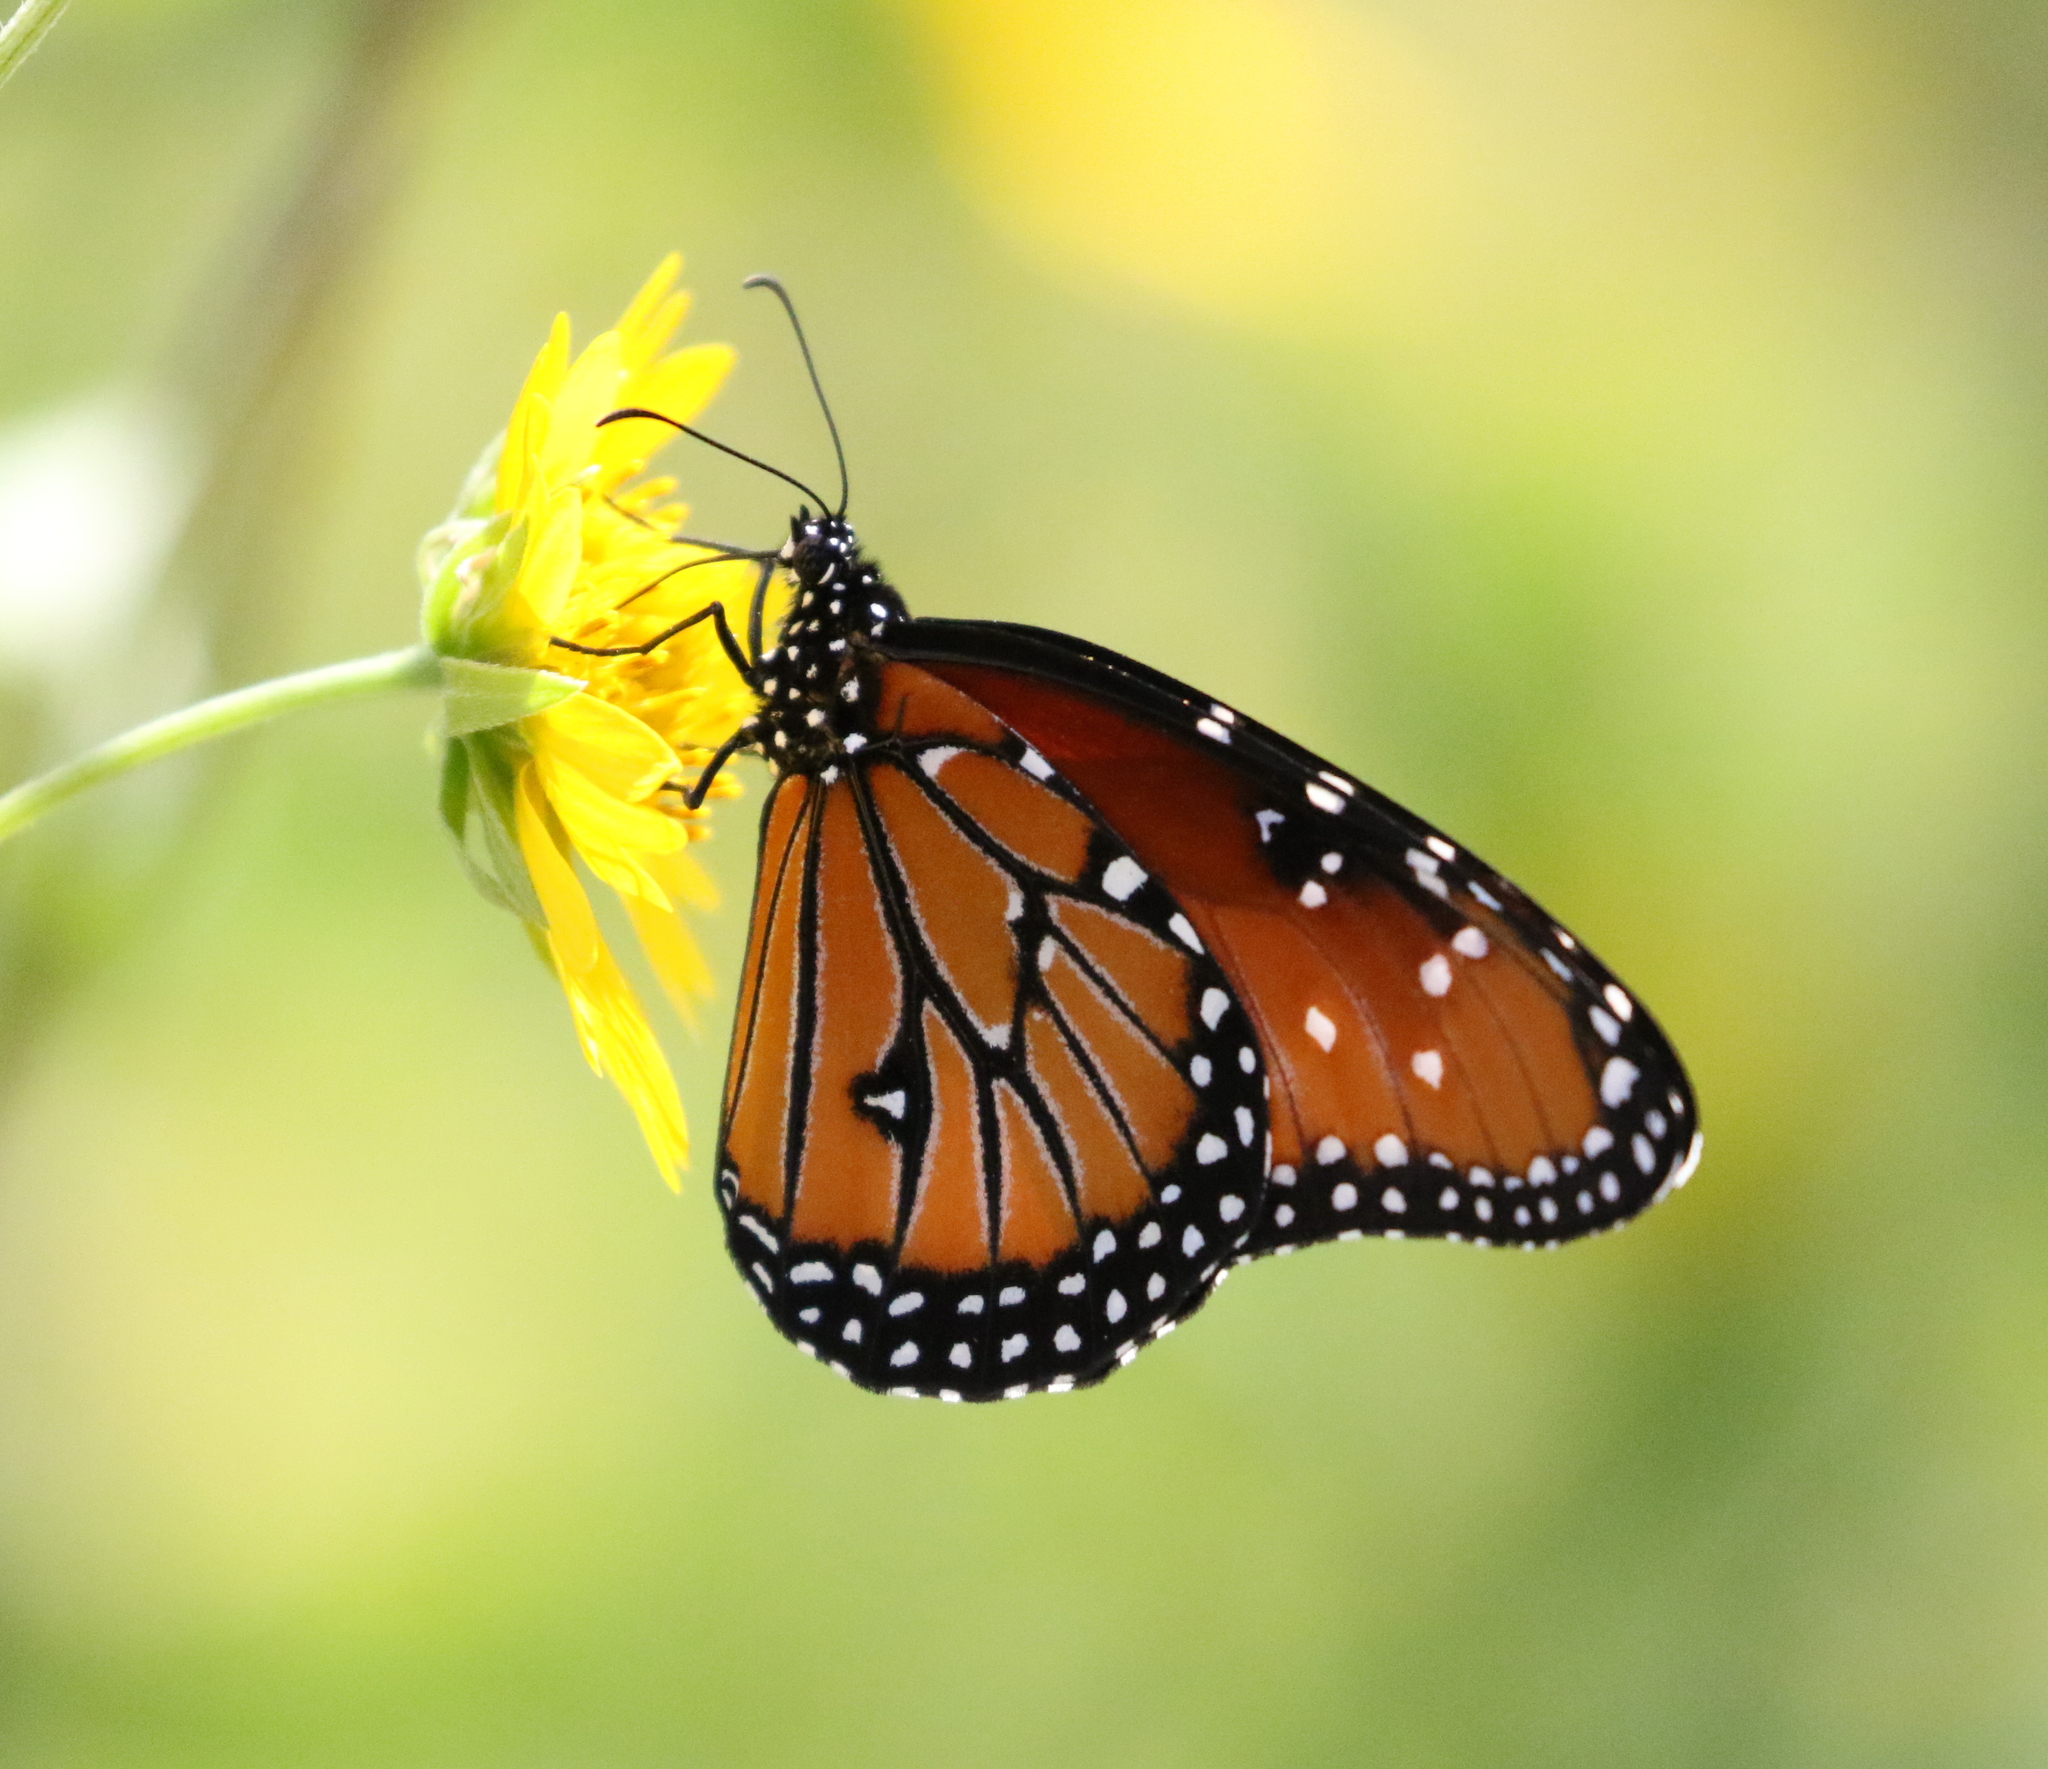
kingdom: Animalia
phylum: Arthropoda
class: Insecta
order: Lepidoptera
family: Nymphalidae
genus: Danaus
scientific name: Danaus gilippus
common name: Queen
